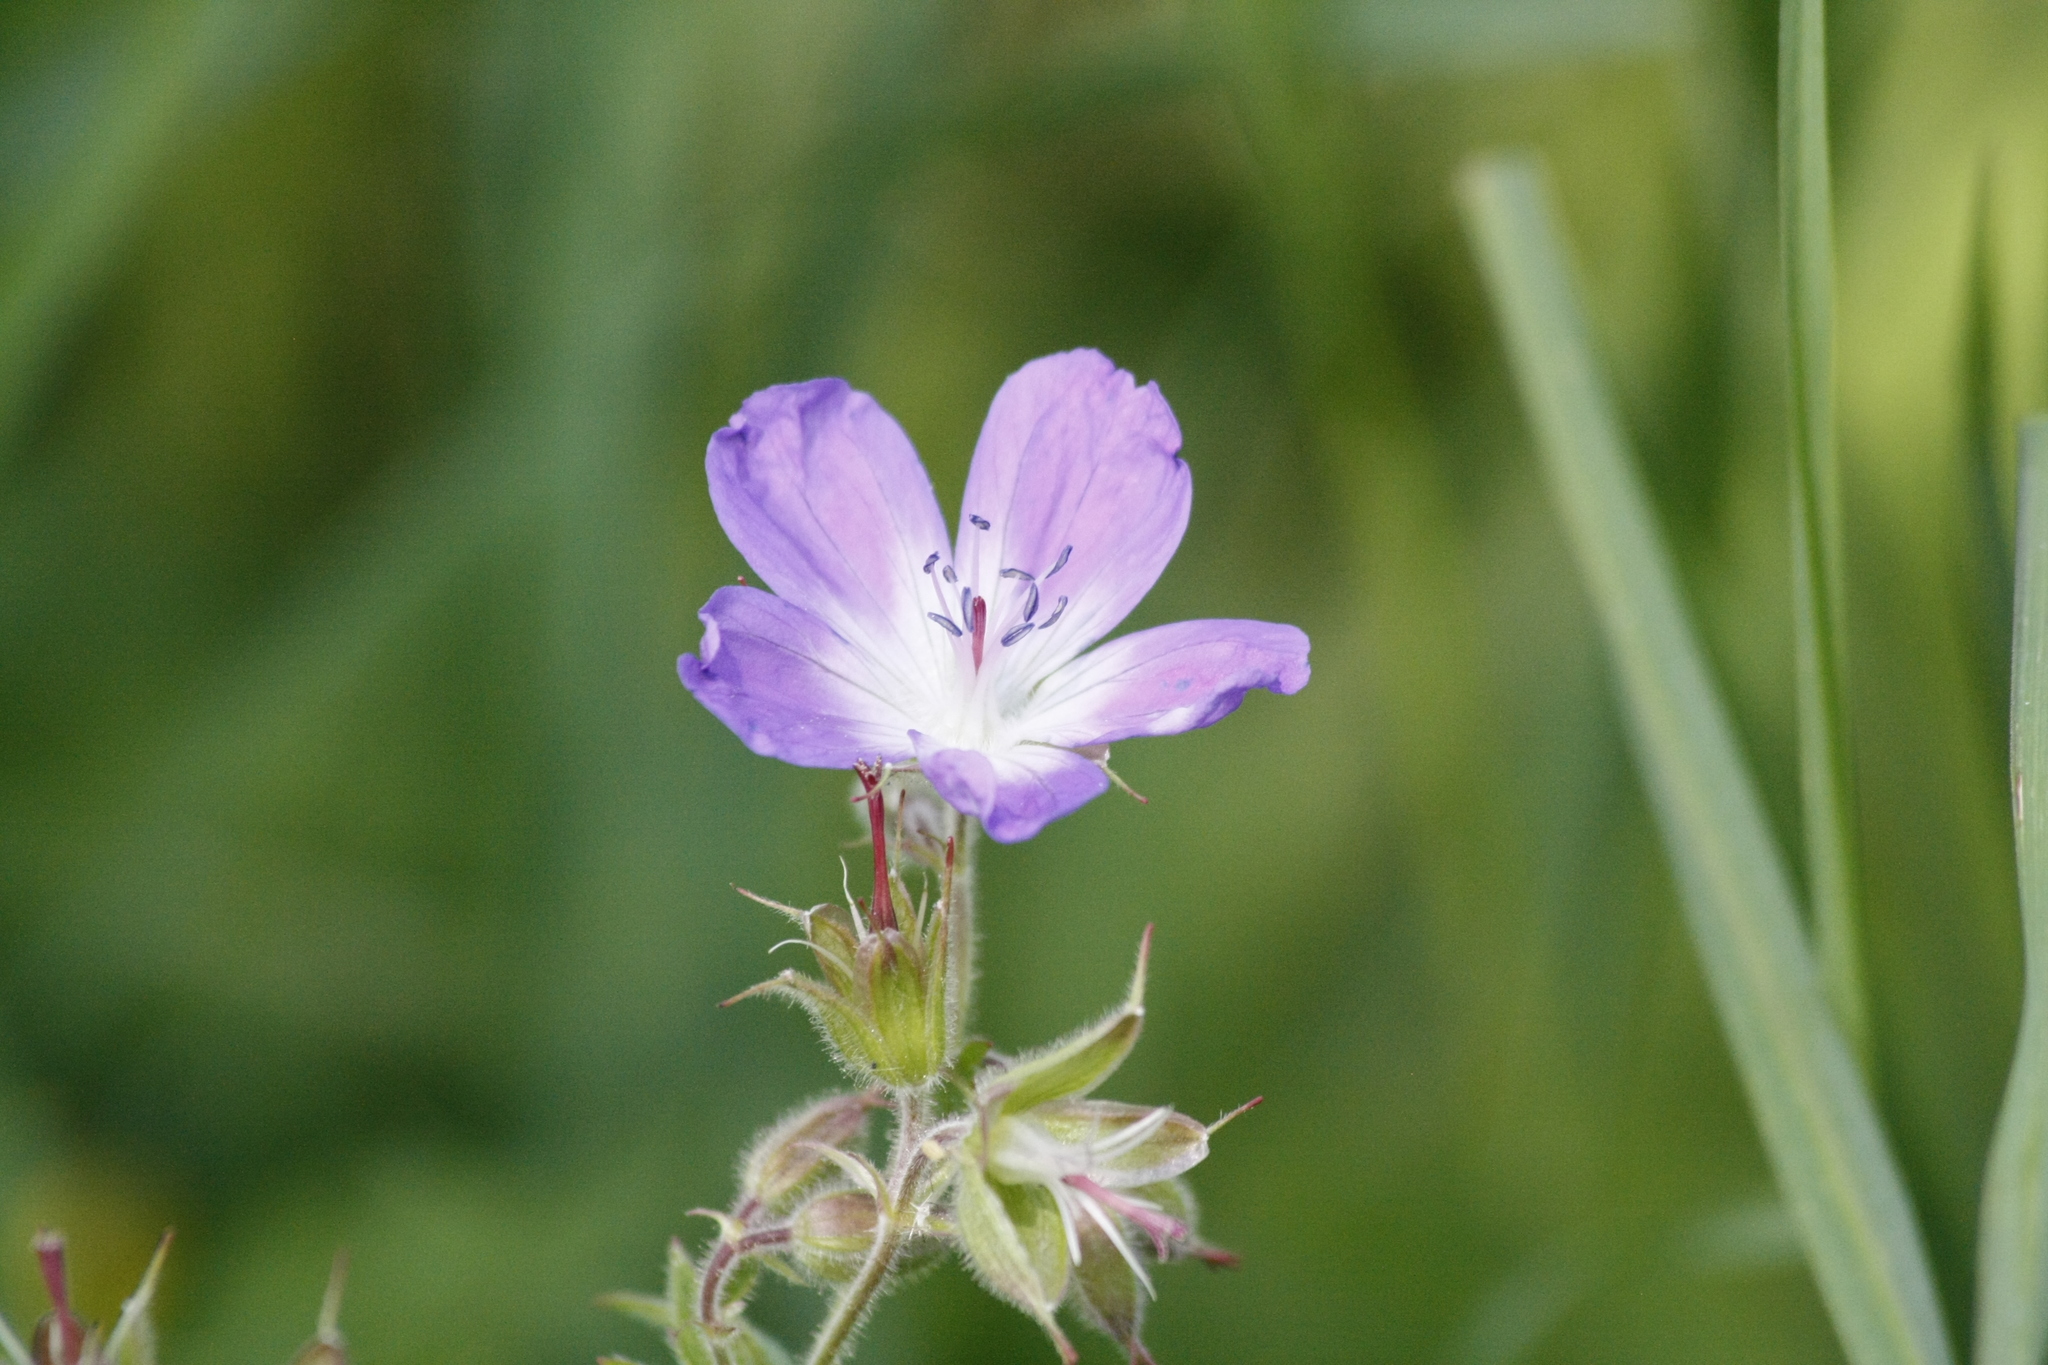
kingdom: Plantae
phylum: Tracheophyta
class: Magnoliopsida
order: Geraniales
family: Geraniaceae
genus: Geranium
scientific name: Geranium sylvaticum
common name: Wood crane's-bill
